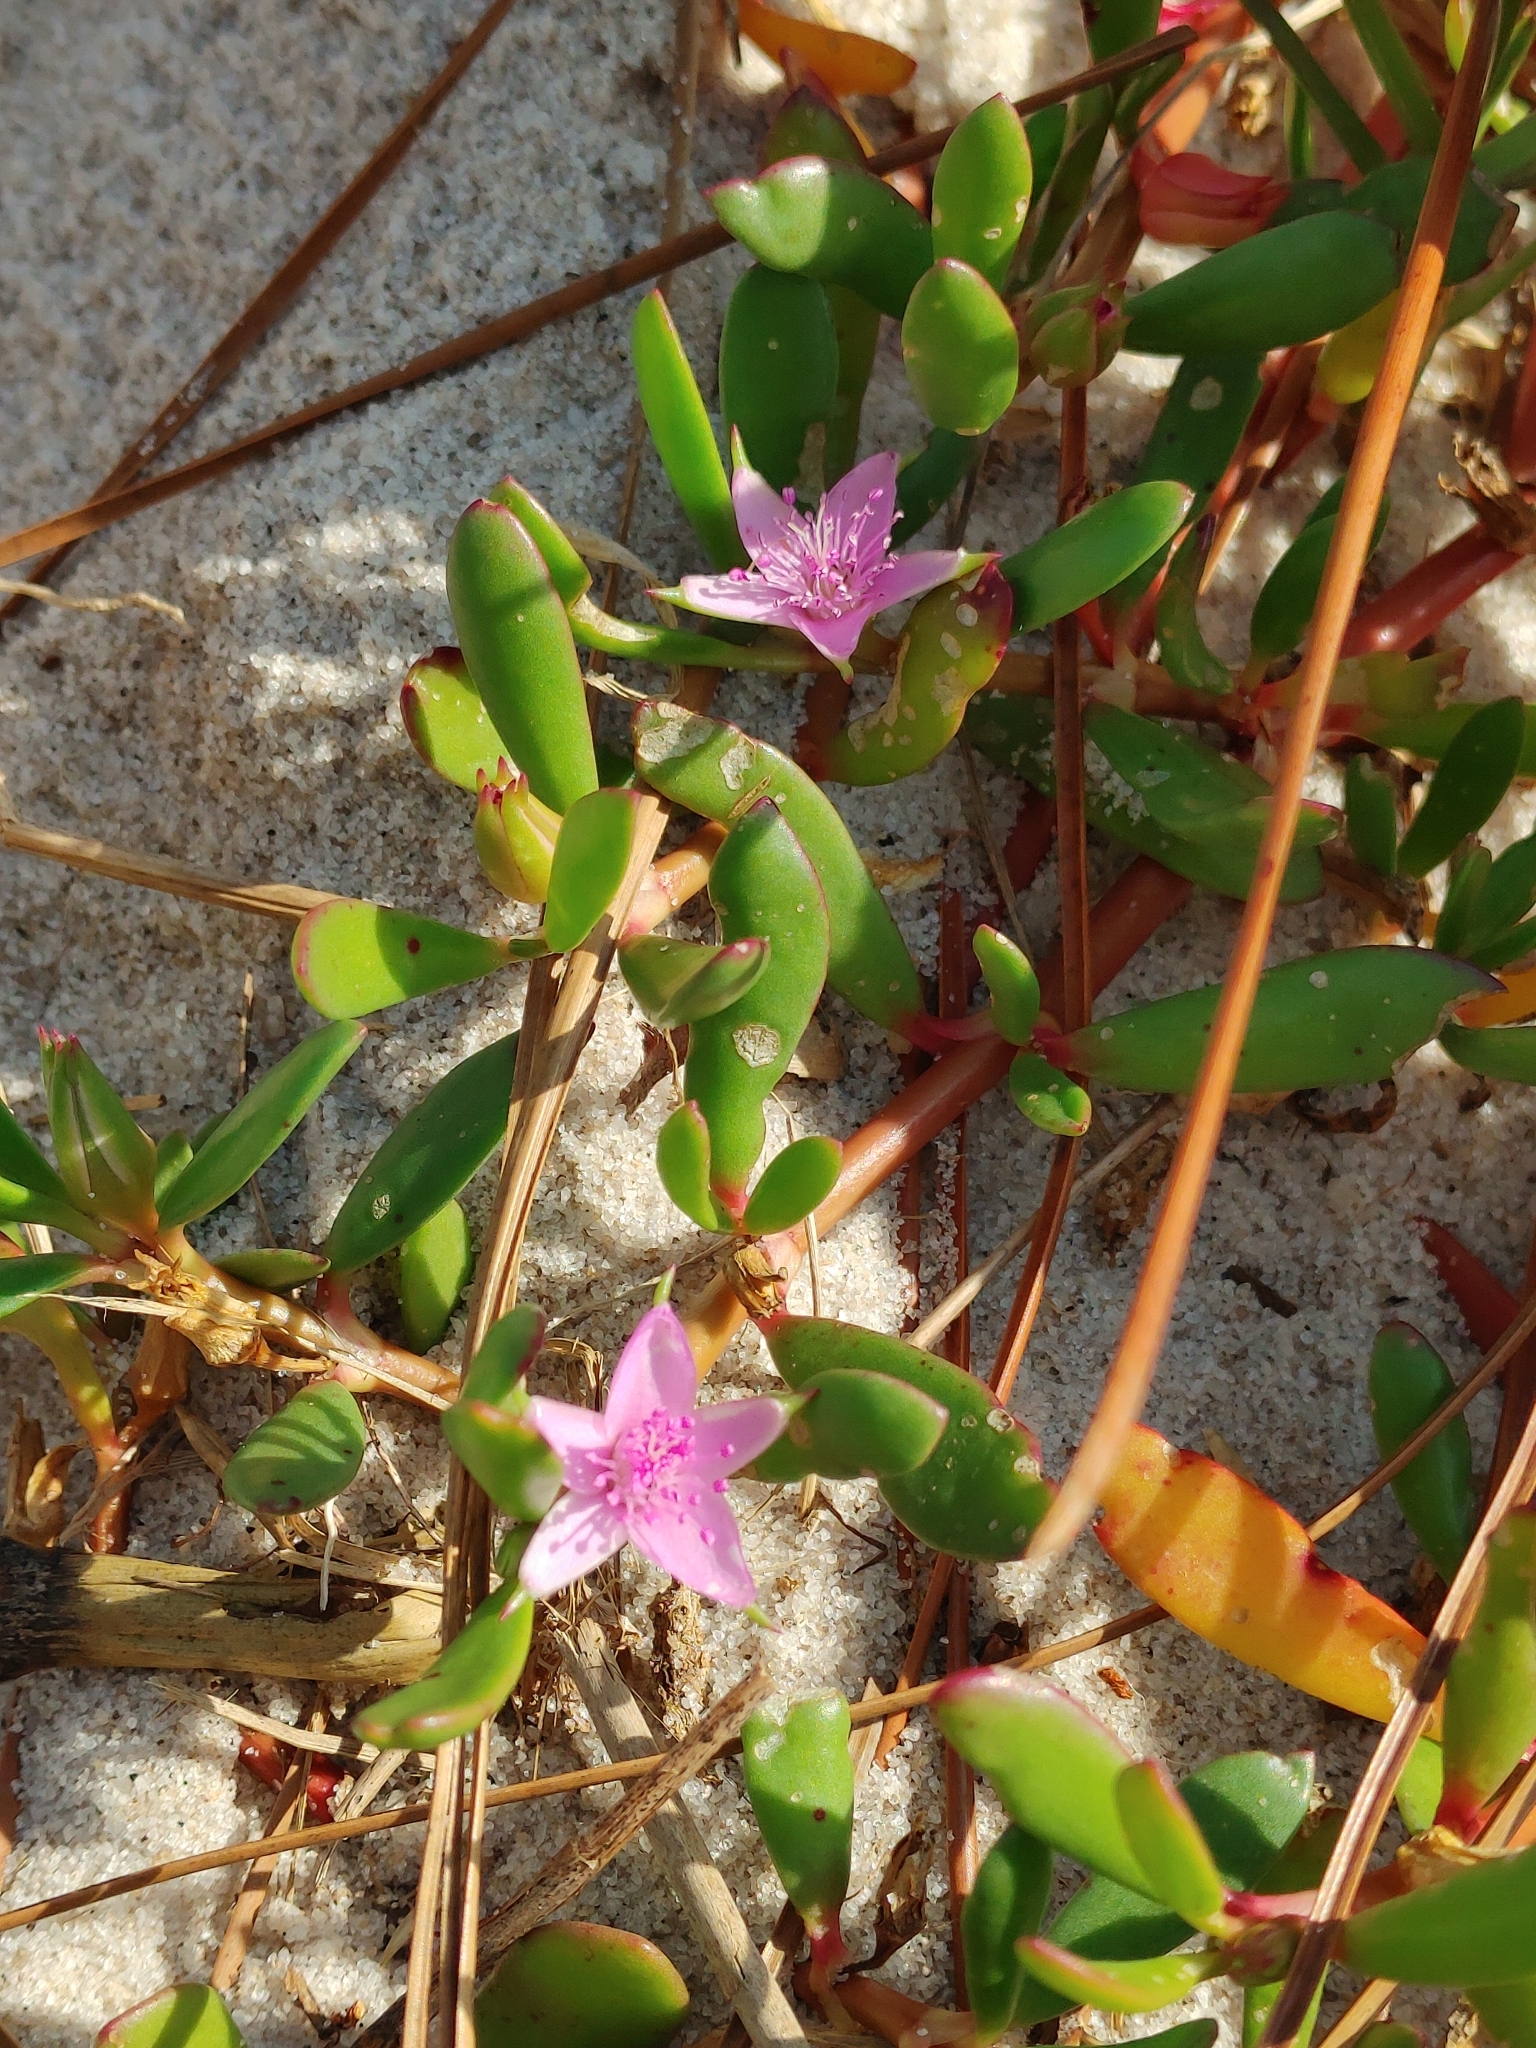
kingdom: Plantae
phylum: Tracheophyta
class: Magnoliopsida
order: Caryophyllales
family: Aizoaceae
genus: Sesuvium
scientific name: Sesuvium portulacastrum
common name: Sea-purslane
